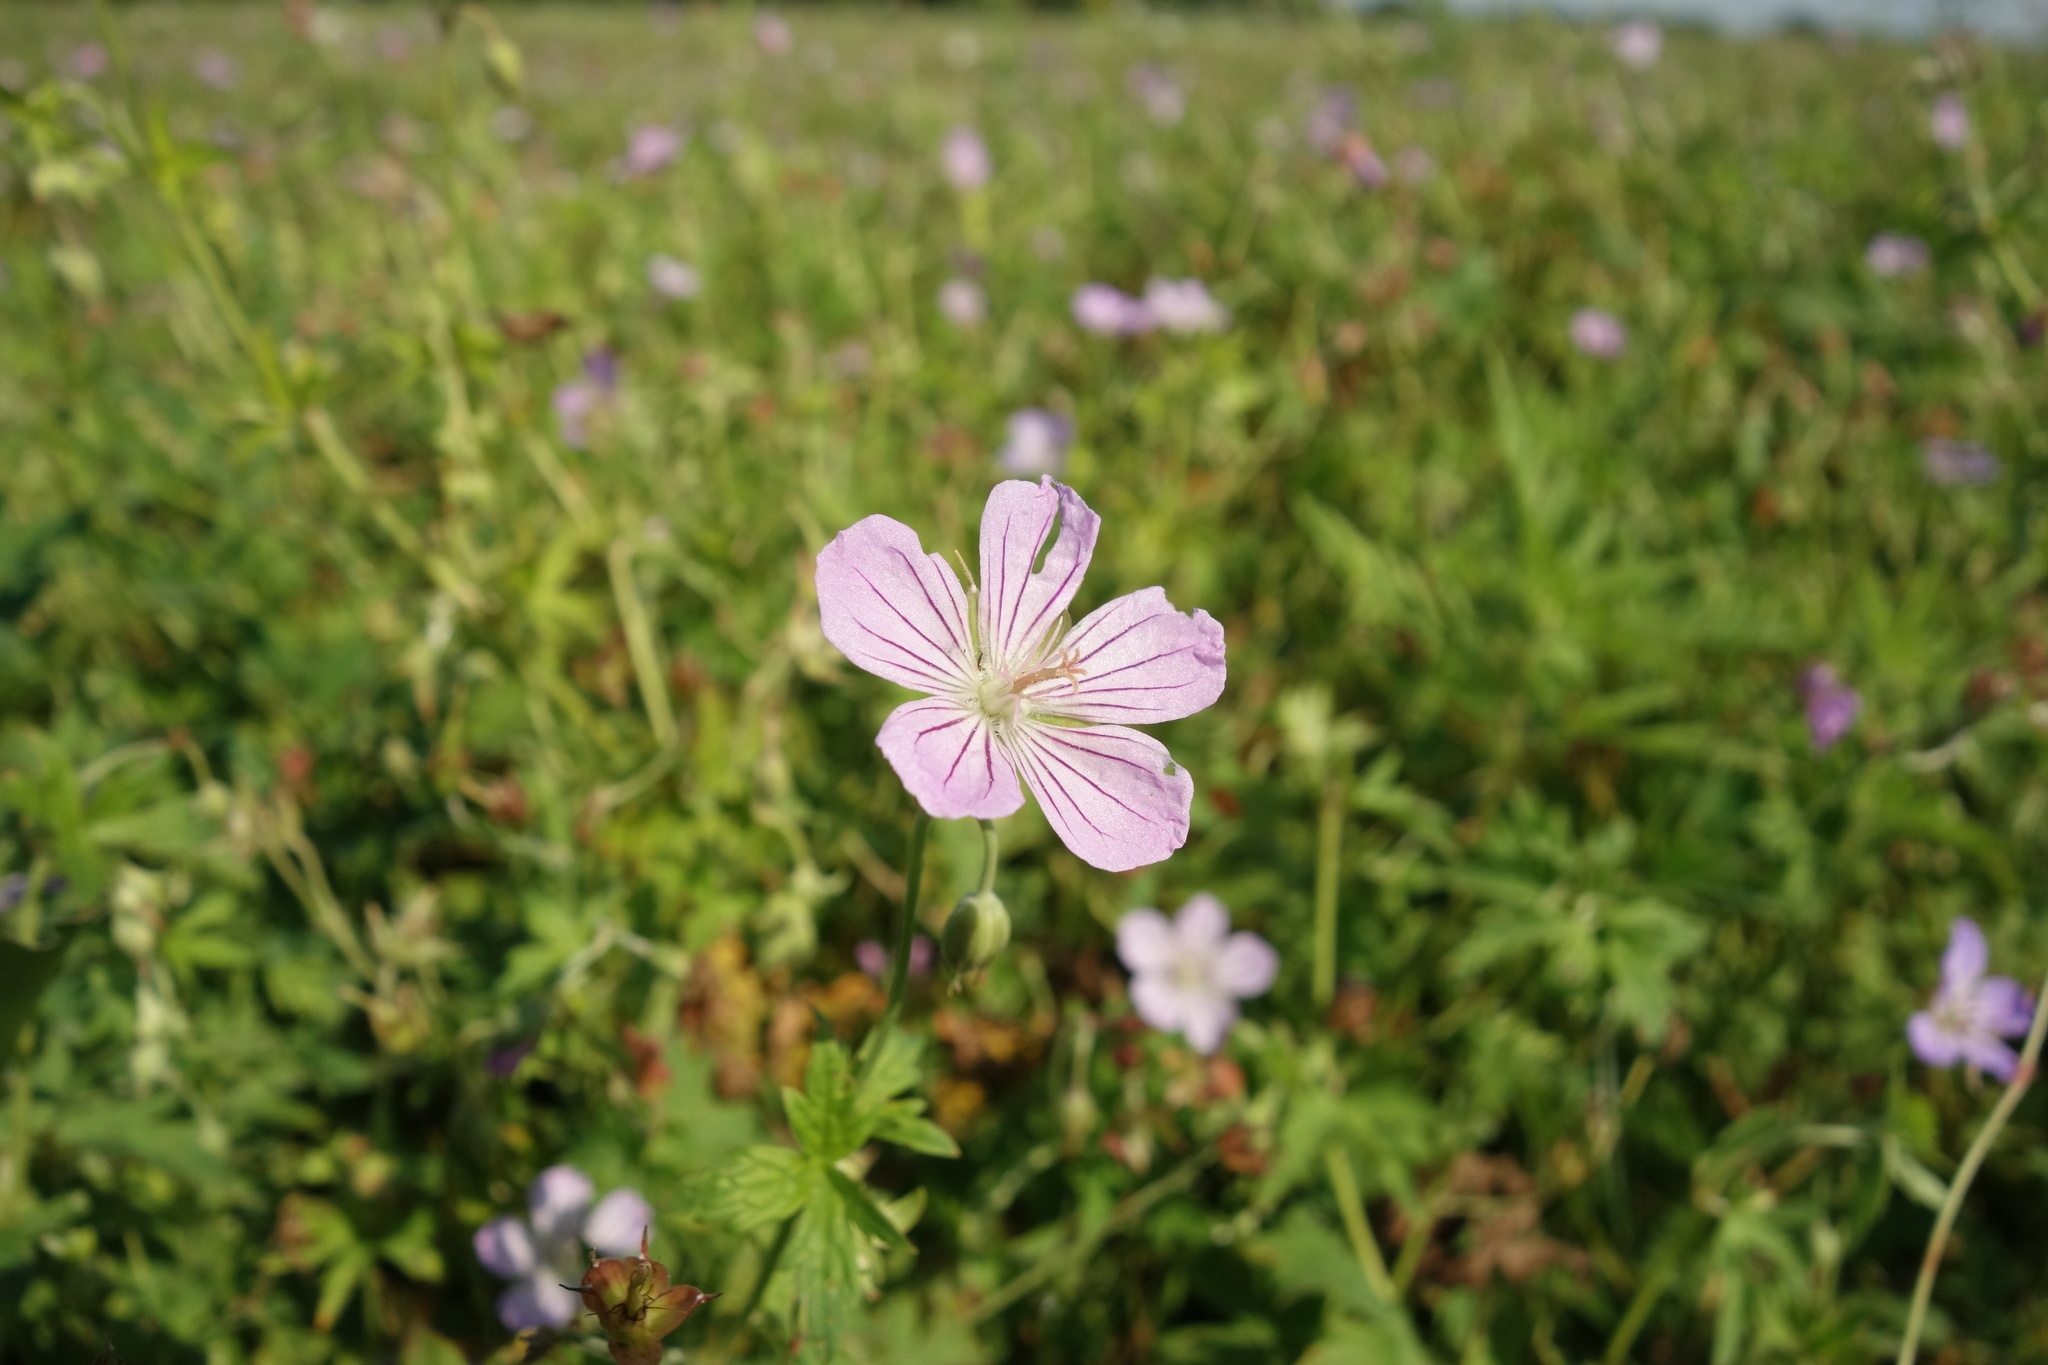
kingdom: Plantae
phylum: Tracheophyta
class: Magnoliopsida
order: Geraniales
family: Geraniaceae
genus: Geranium
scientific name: Geranium collinum
